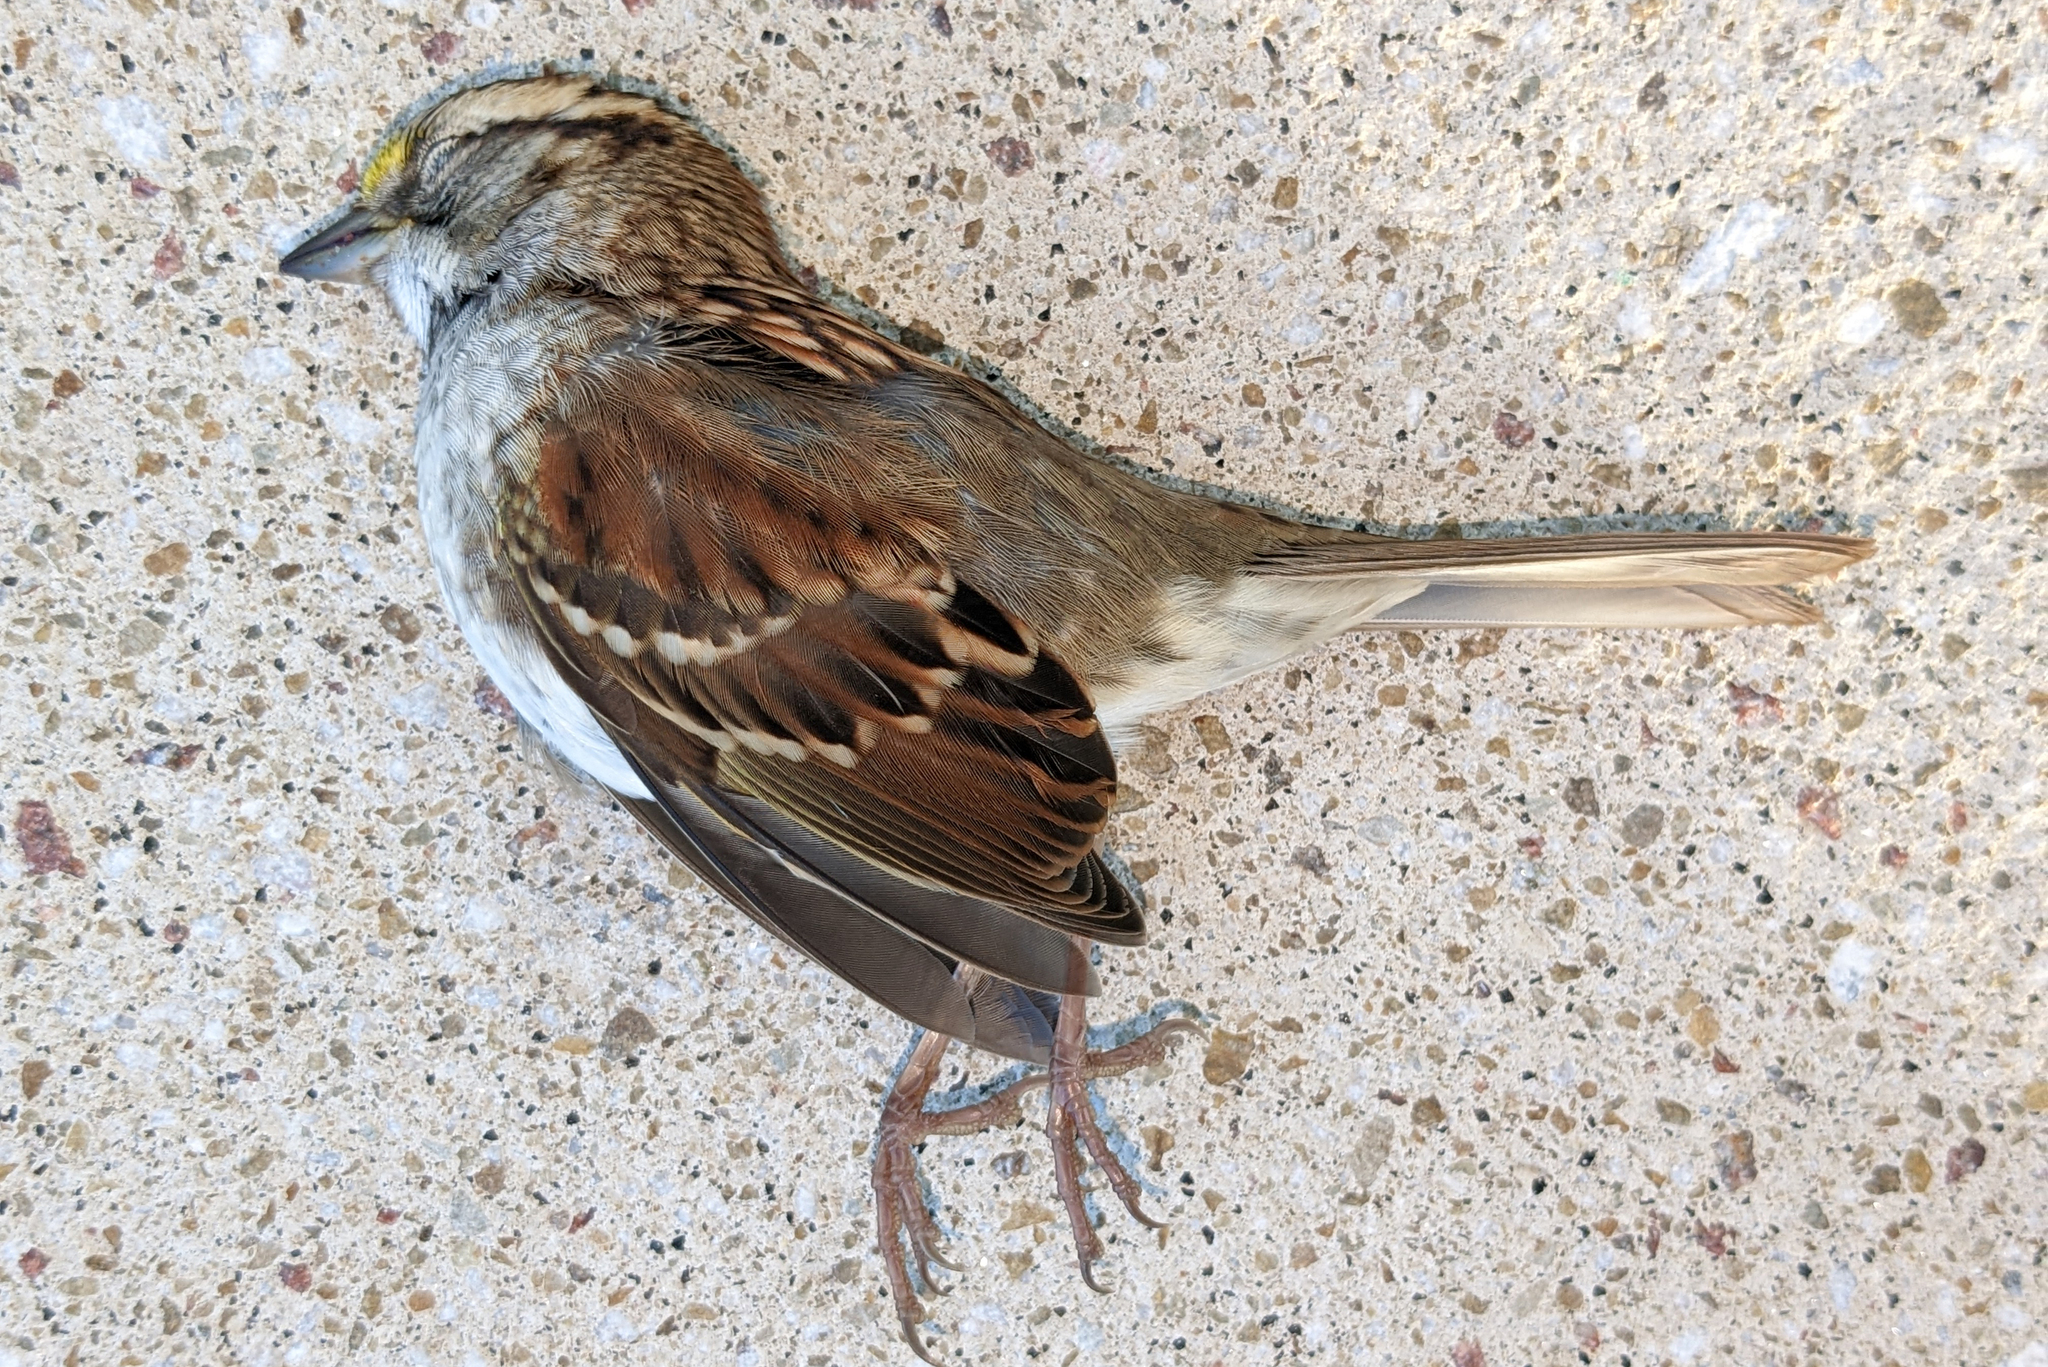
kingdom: Animalia
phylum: Chordata
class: Aves
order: Passeriformes
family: Passerellidae
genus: Zonotrichia
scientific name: Zonotrichia albicollis
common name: White-throated sparrow
